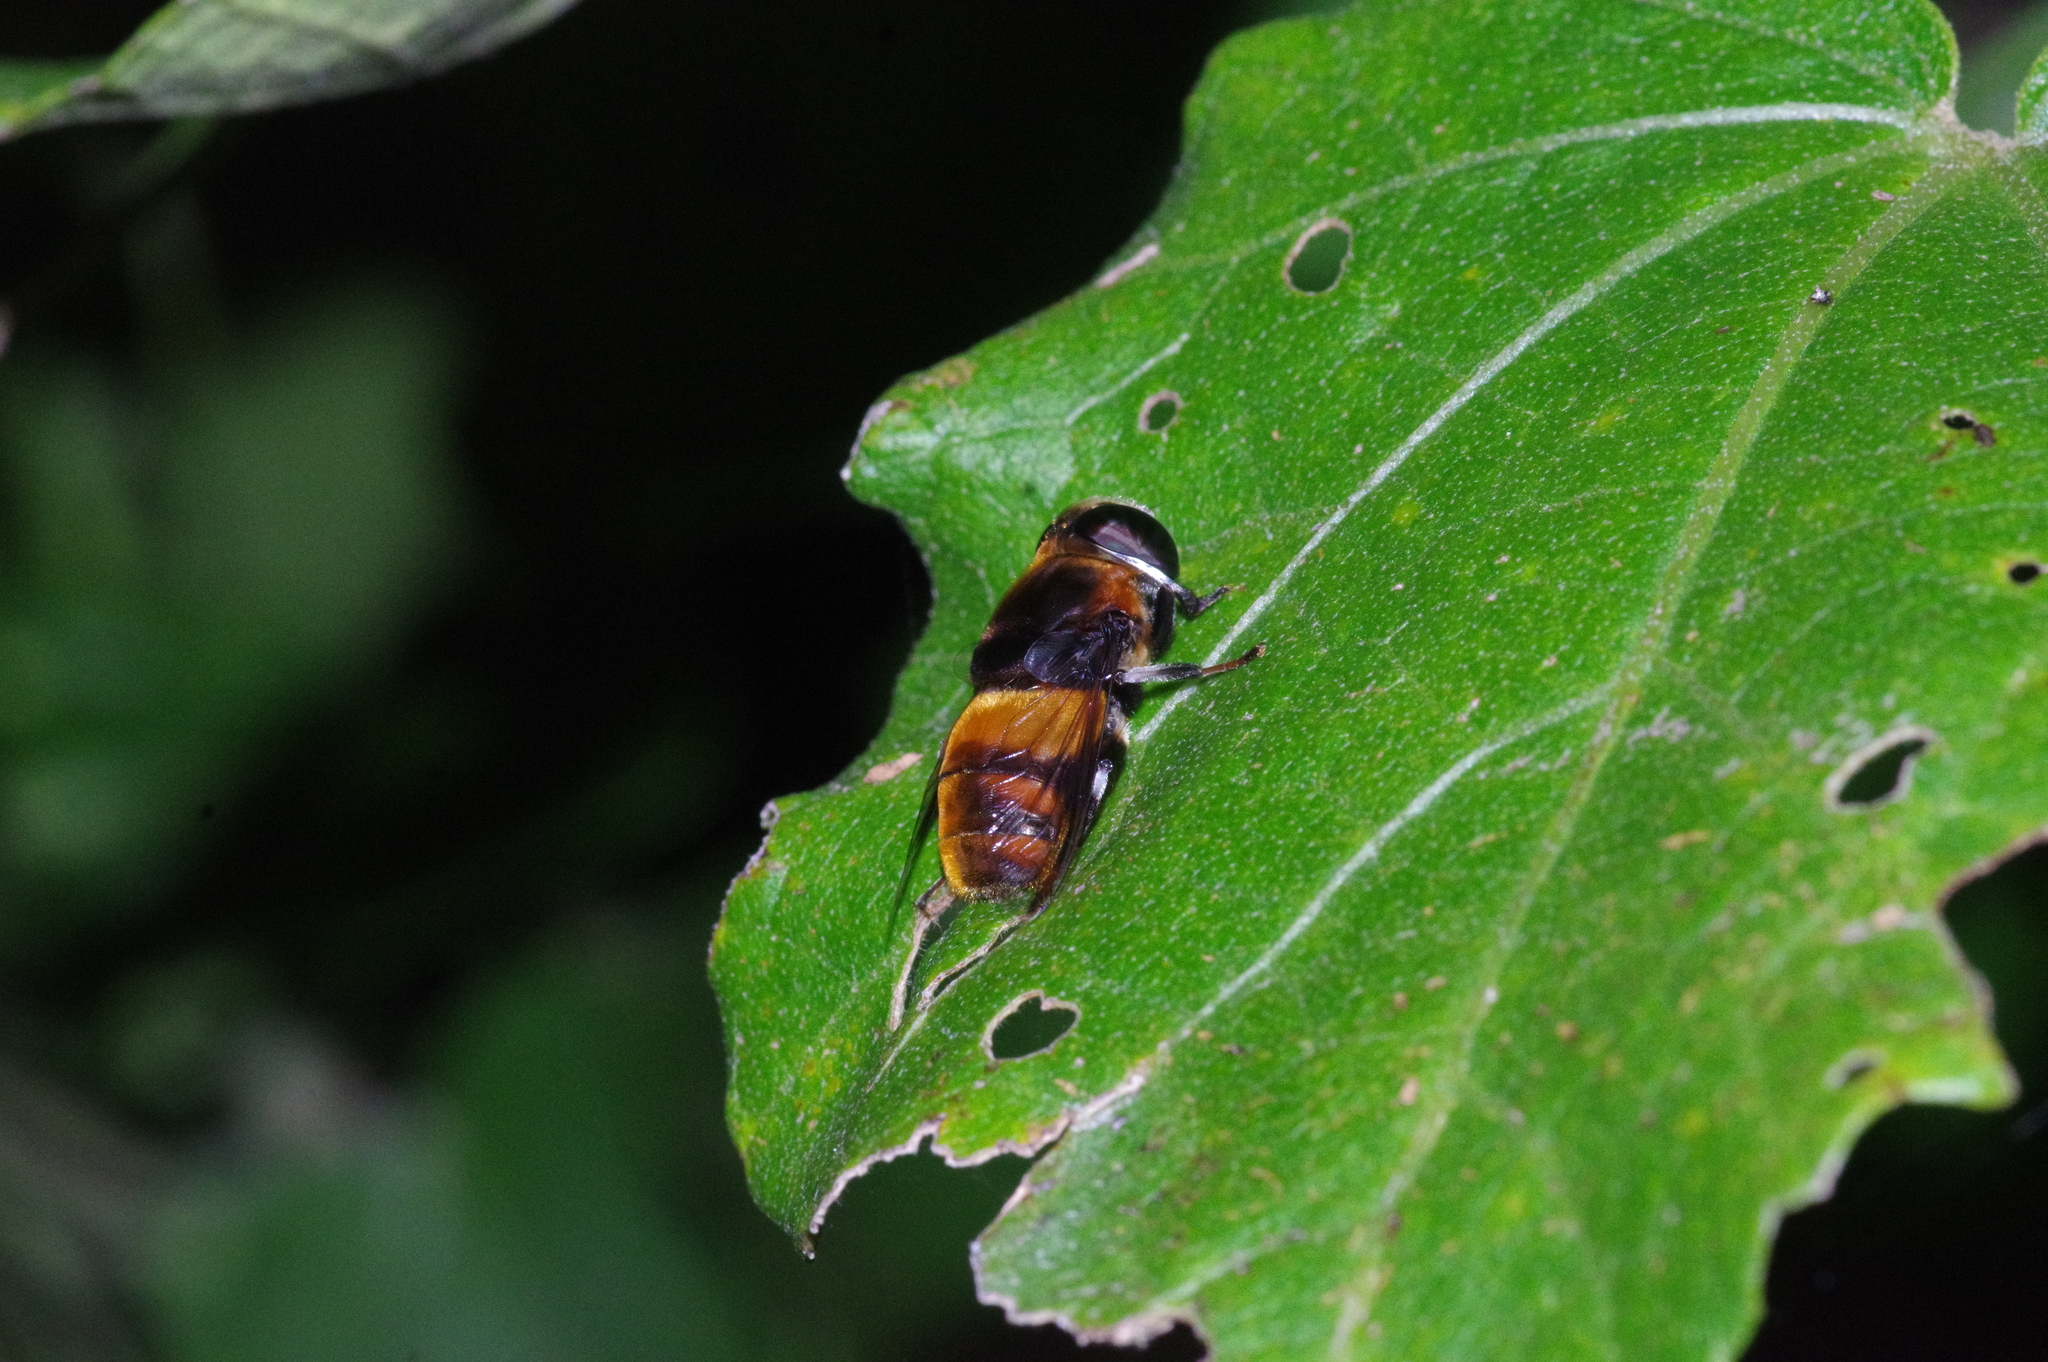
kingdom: Animalia
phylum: Arthropoda
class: Insecta
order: Diptera
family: Syrphidae
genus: Phytomia
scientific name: Phytomia zonata
